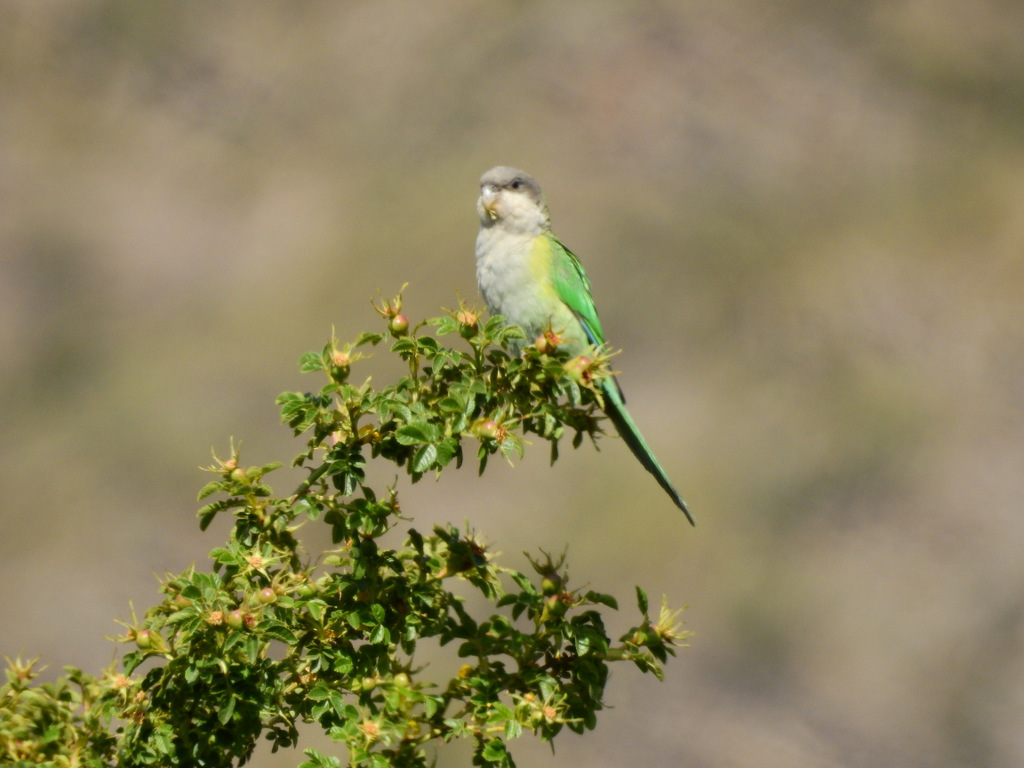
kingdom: Animalia
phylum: Chordata
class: Aves
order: Psittaciformes
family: Psittacidae
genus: Psilopsiagon
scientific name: Psilopsiagon aymara
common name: Grey-hooded parakeet
